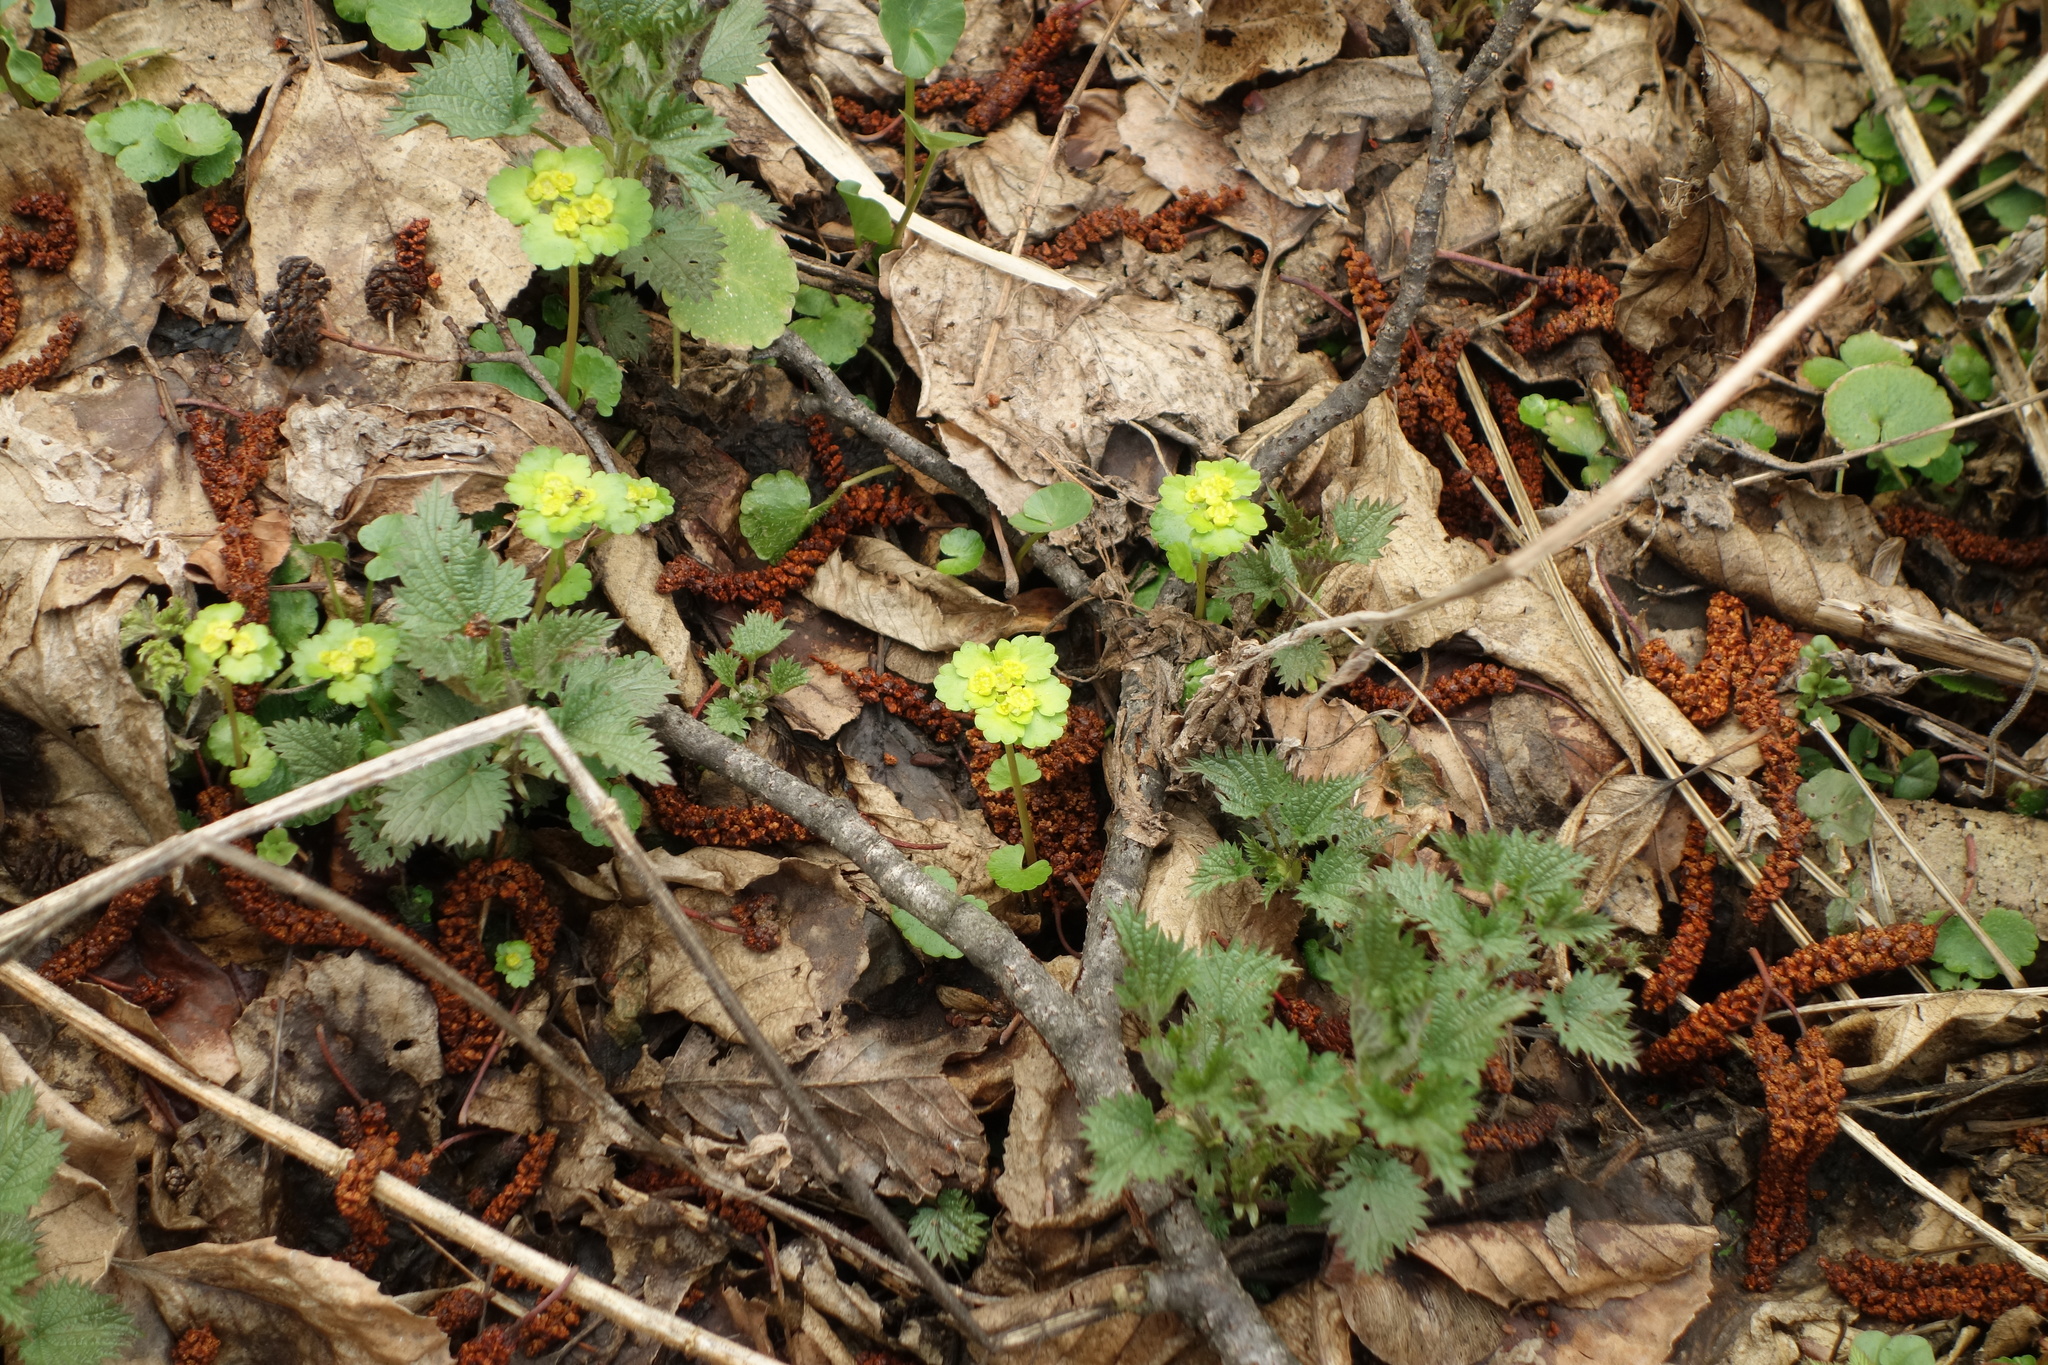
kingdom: Plantae
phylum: Tracheophyta
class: Magnoliopsida
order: Saxifragales
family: Saxifragaceae
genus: Chrysosplenium
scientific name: Chrysosplenium alternifolium
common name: Alternate-leaved golden-saxifrage
